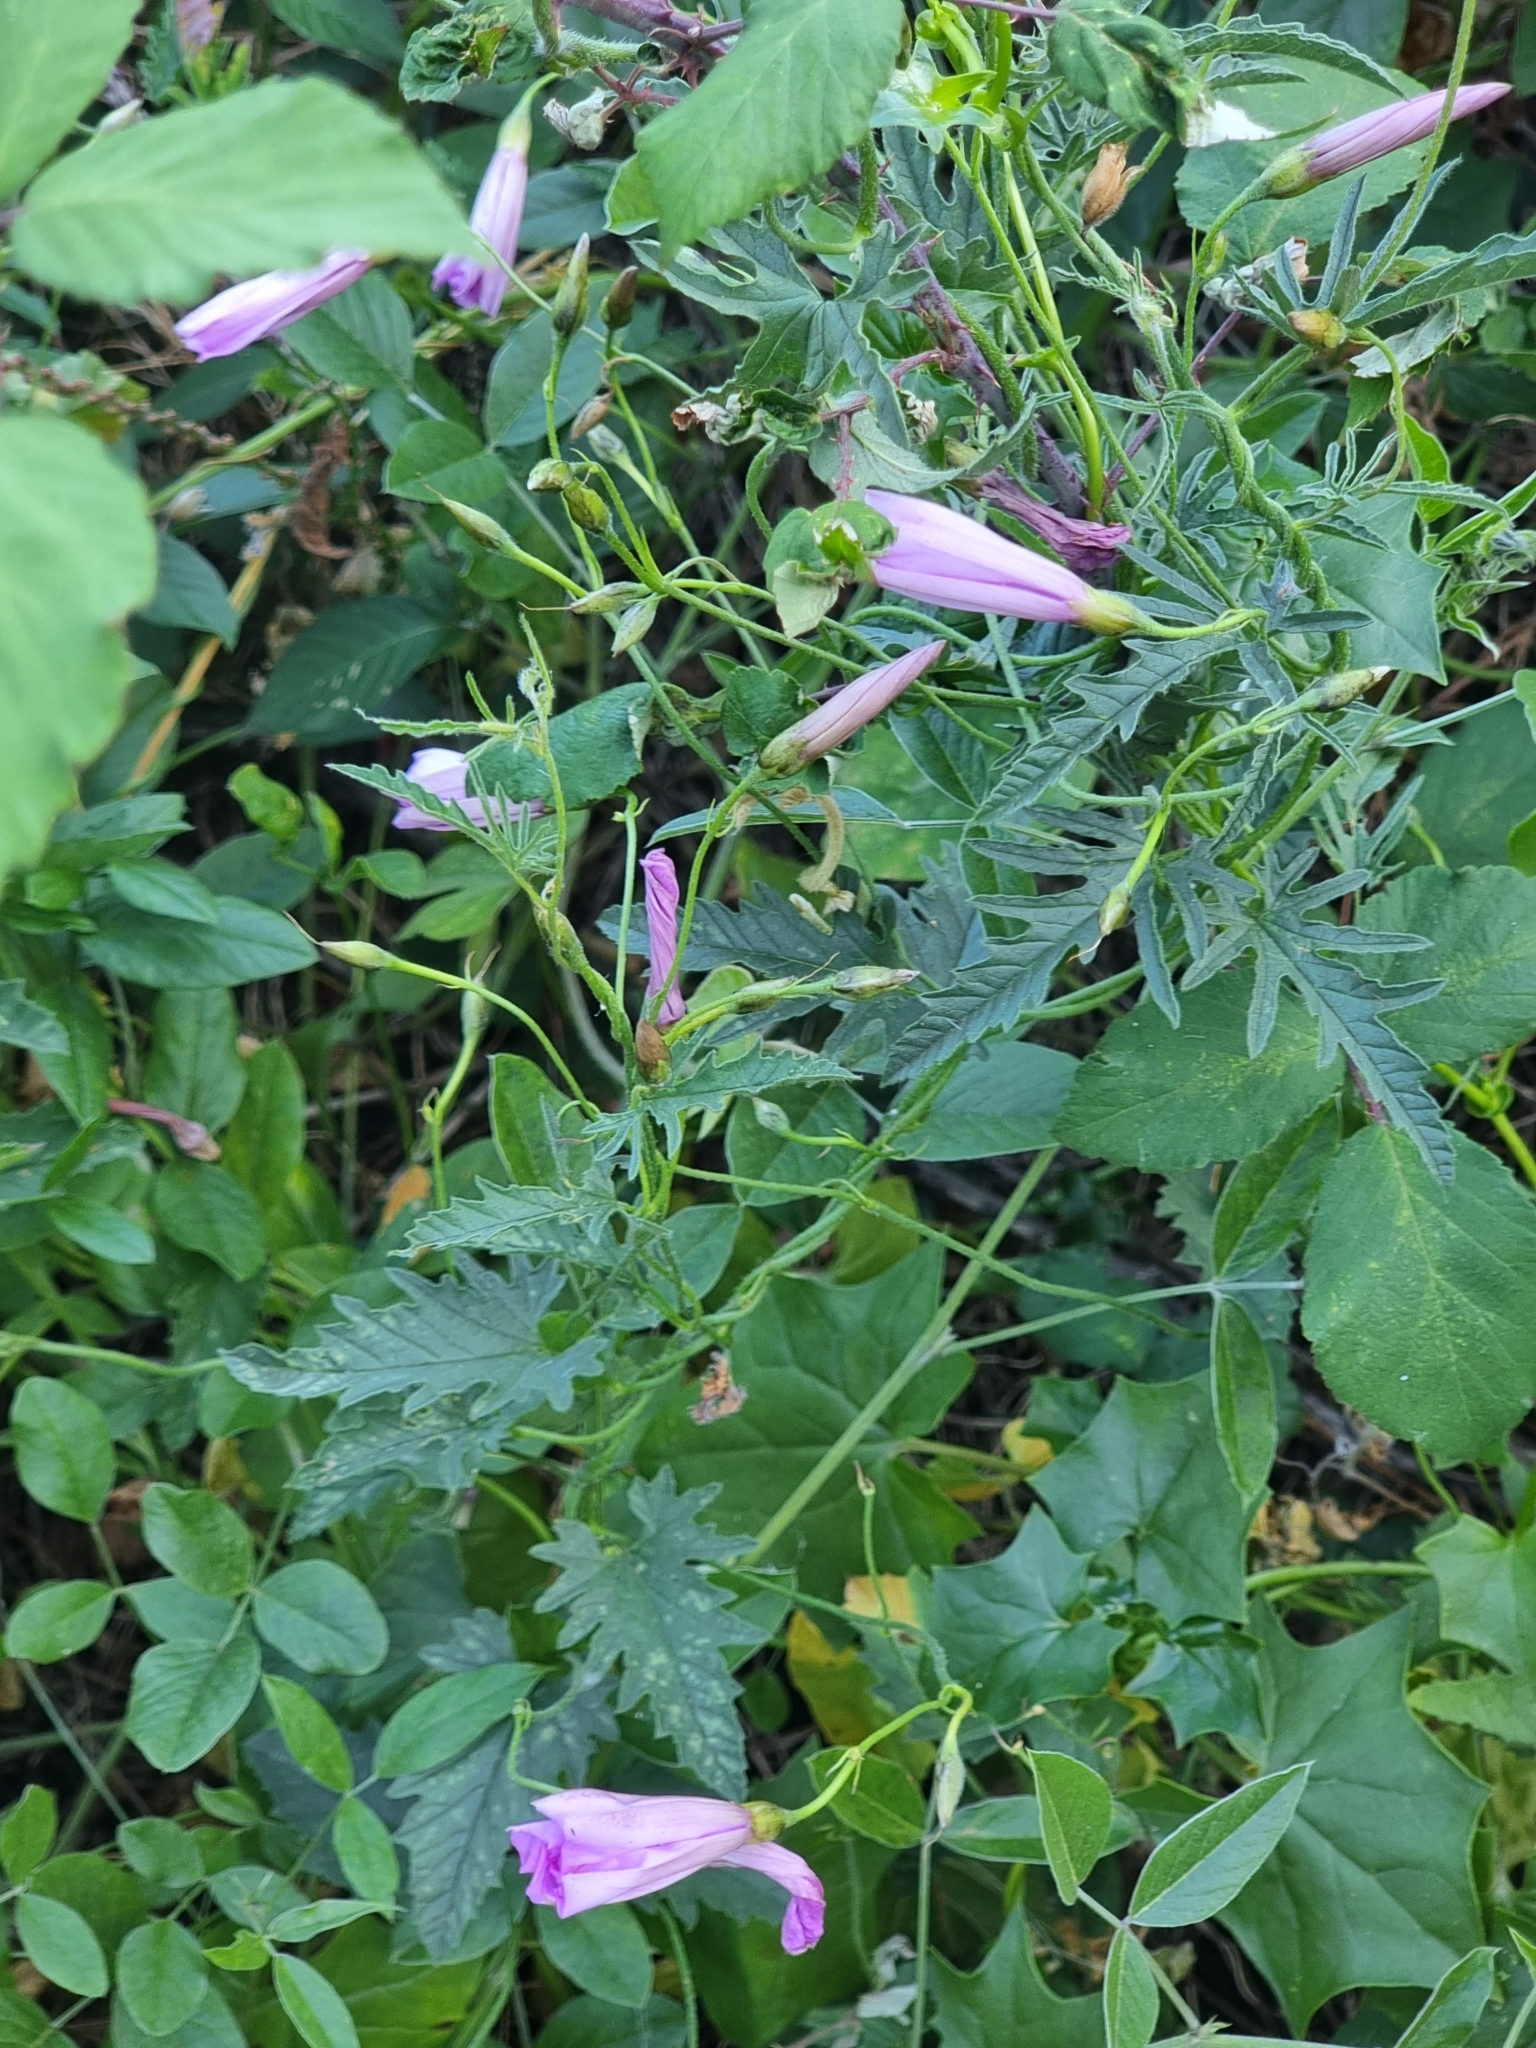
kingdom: Plantae
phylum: Tracheophyta
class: Magnoliopsida
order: Solanales
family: Convolvulaceae
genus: Convolvulus
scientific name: Convolvulus althaeoides
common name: Mallow bindweed
